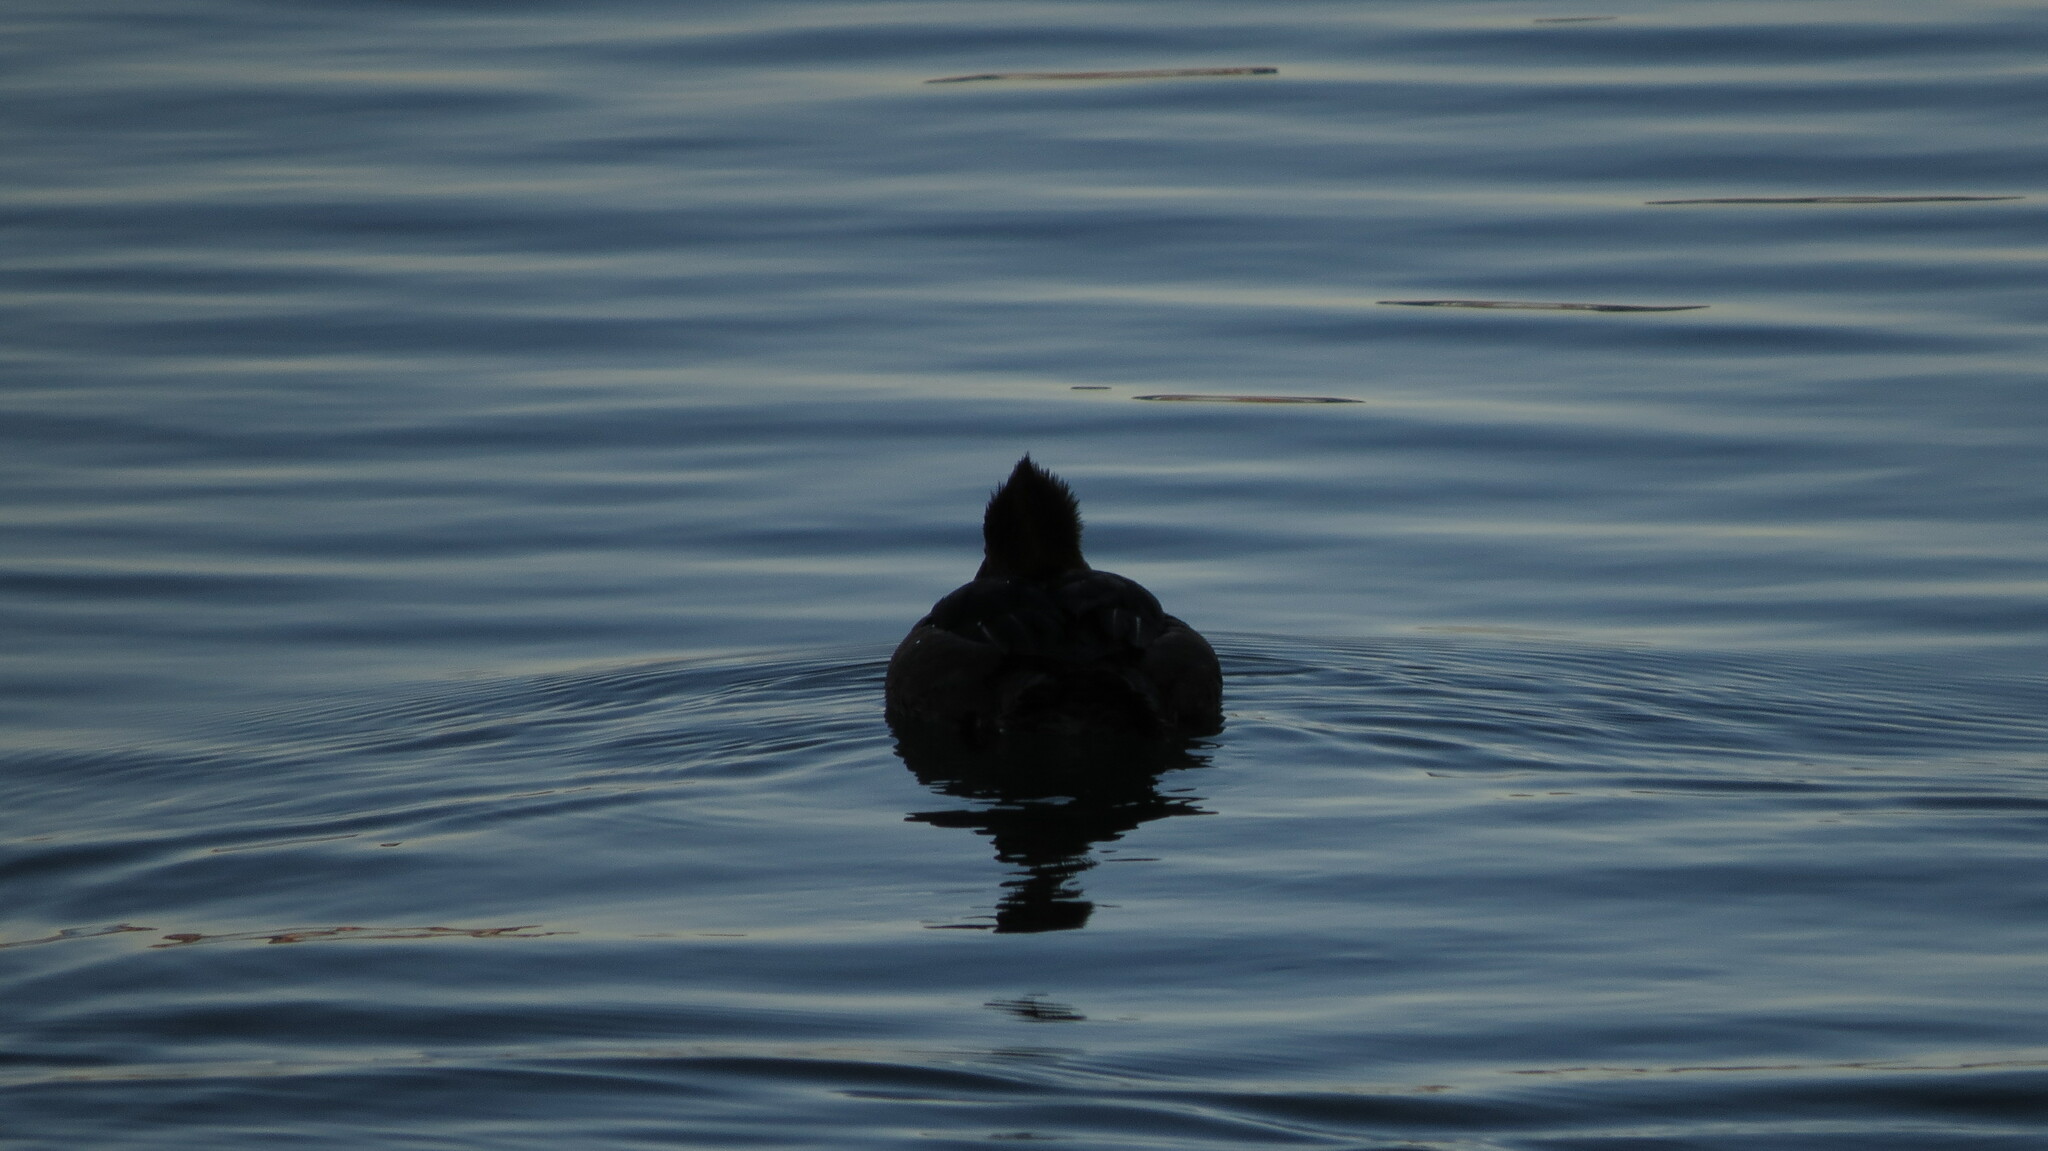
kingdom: Animalia
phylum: Chordata
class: Aves
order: Anseriformes
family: Anatidae
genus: Lophodytes
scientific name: Lophodytes cucullatus
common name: Hooded merganser
